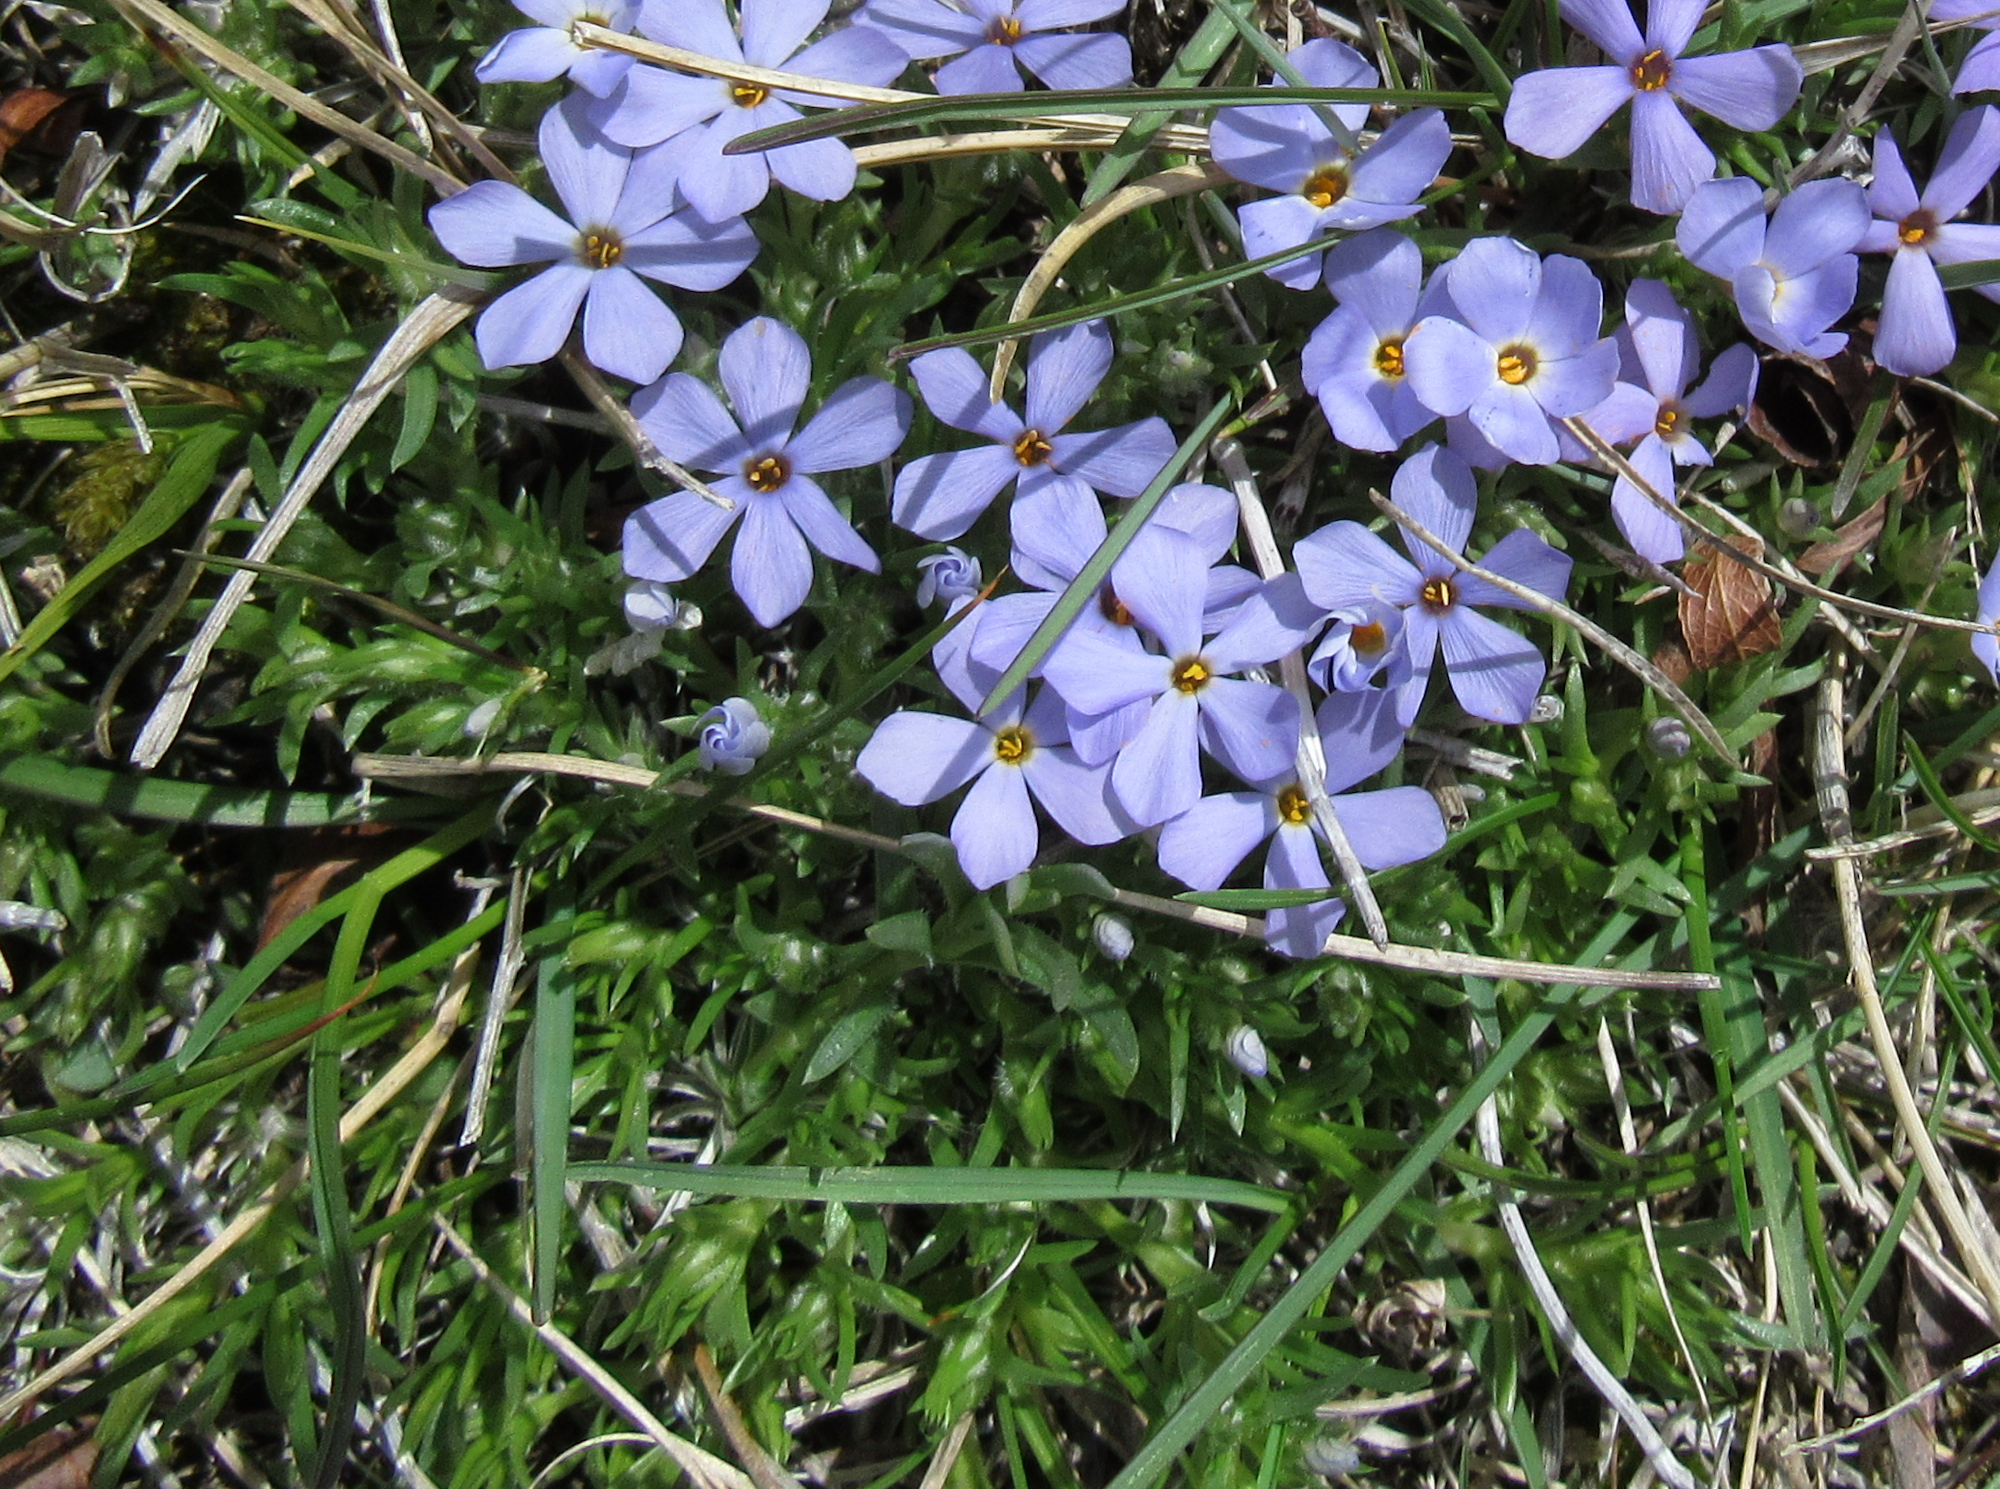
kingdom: Plantae
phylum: Tracheophyta
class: Magnoliopsida
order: Ericales
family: Polemoniaceae
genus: Phlox
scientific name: Phlox multiflora
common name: Rocky mountain phlox
